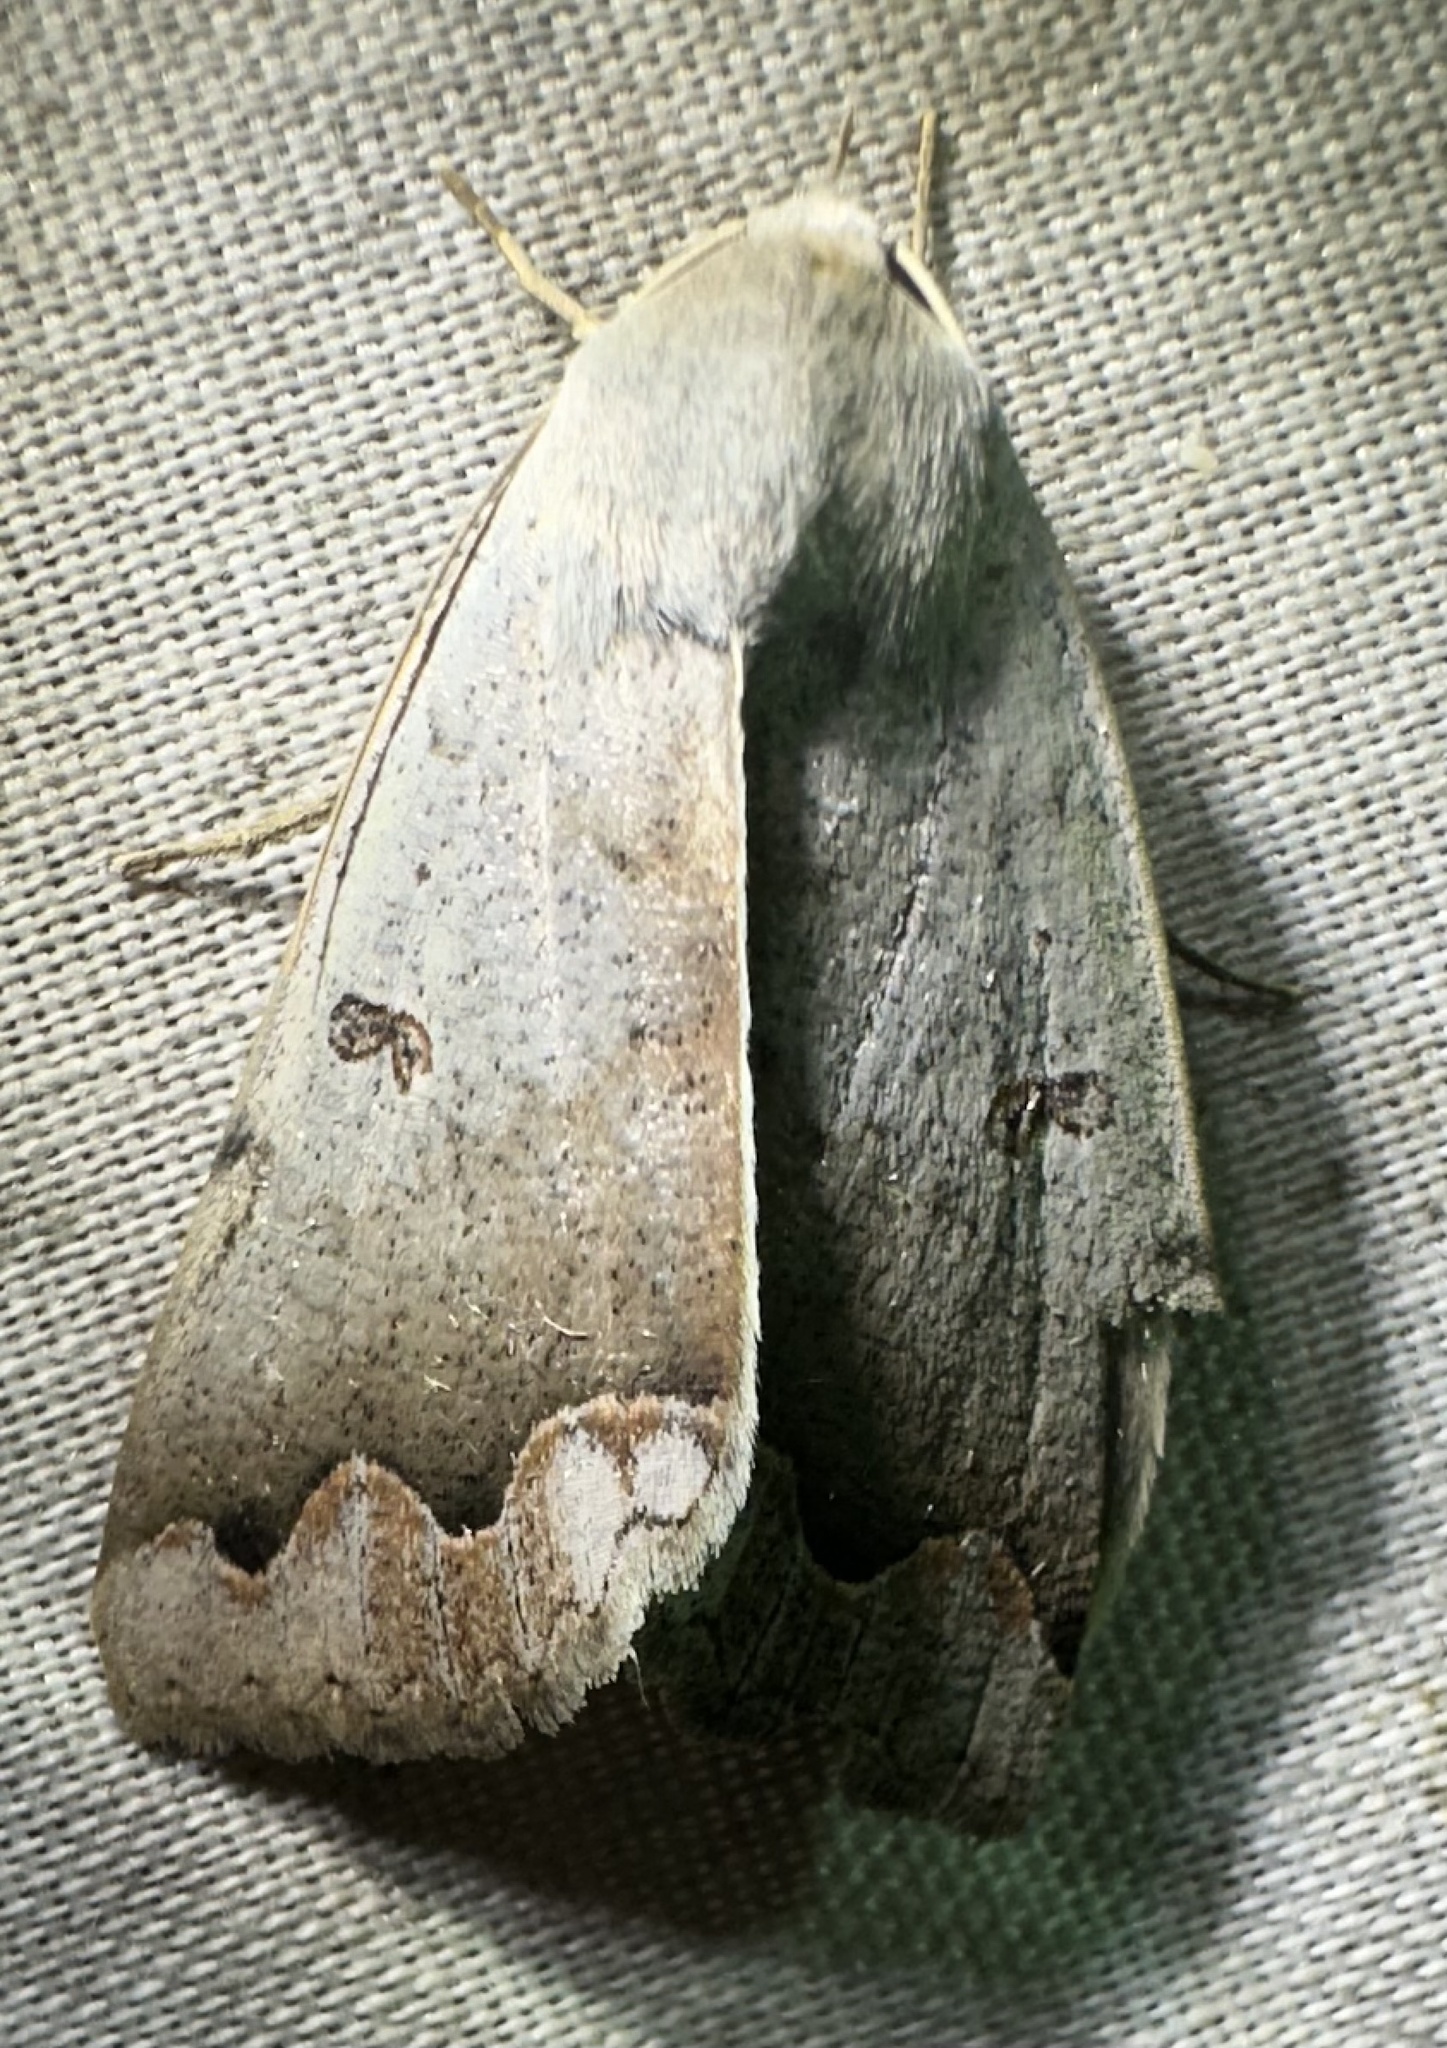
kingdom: Animalia
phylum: Arthropoda
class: Insecta
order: Lepidoptera
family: Erebidae
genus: Ophiusa
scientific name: Ophiusa dianaris
